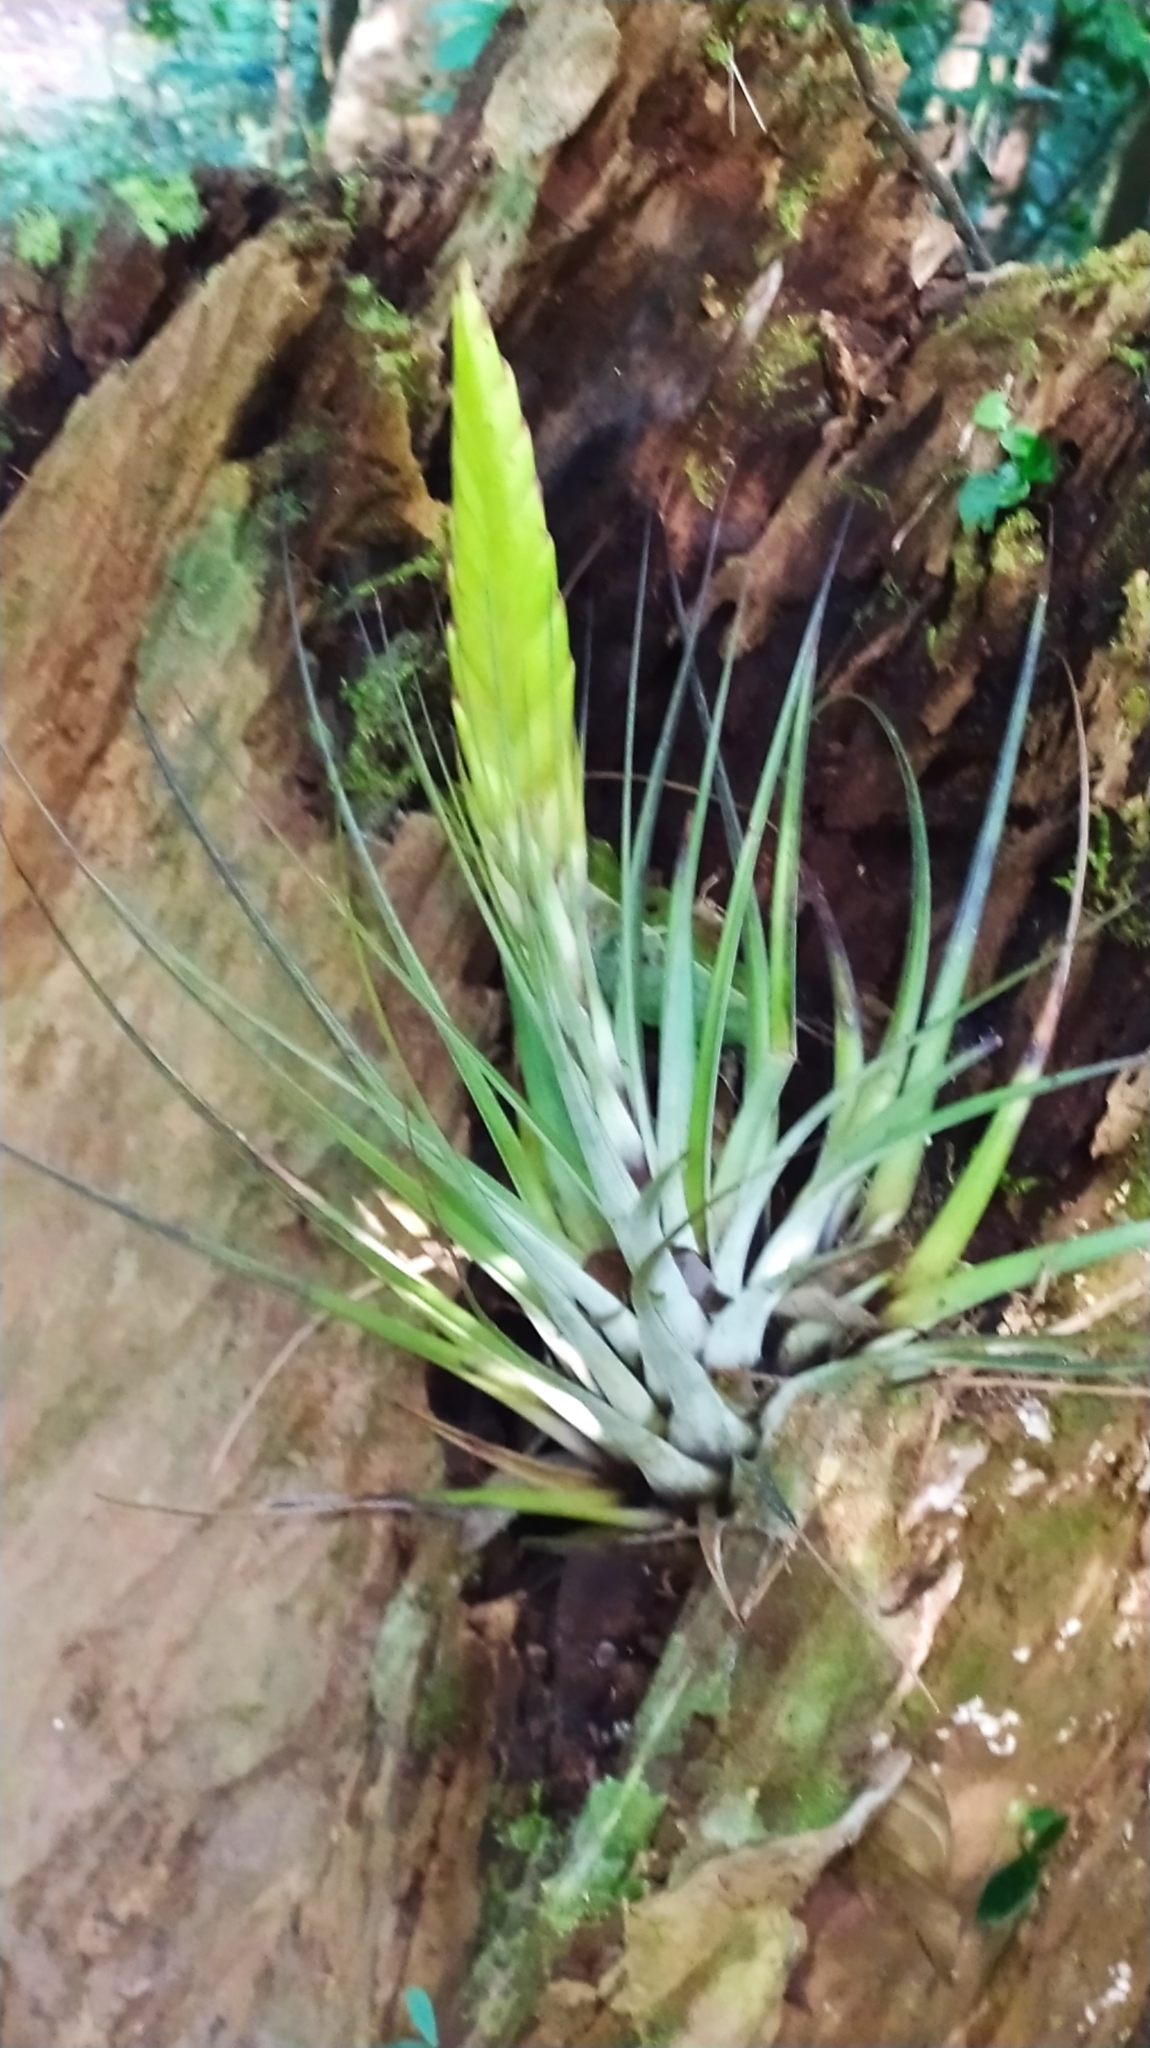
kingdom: Plantae
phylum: Tracheophyta
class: Liliopsida
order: Poales
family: Bromeliaceae
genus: Tillandsia
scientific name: Tillandsia fasciculata
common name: Giant airplant
